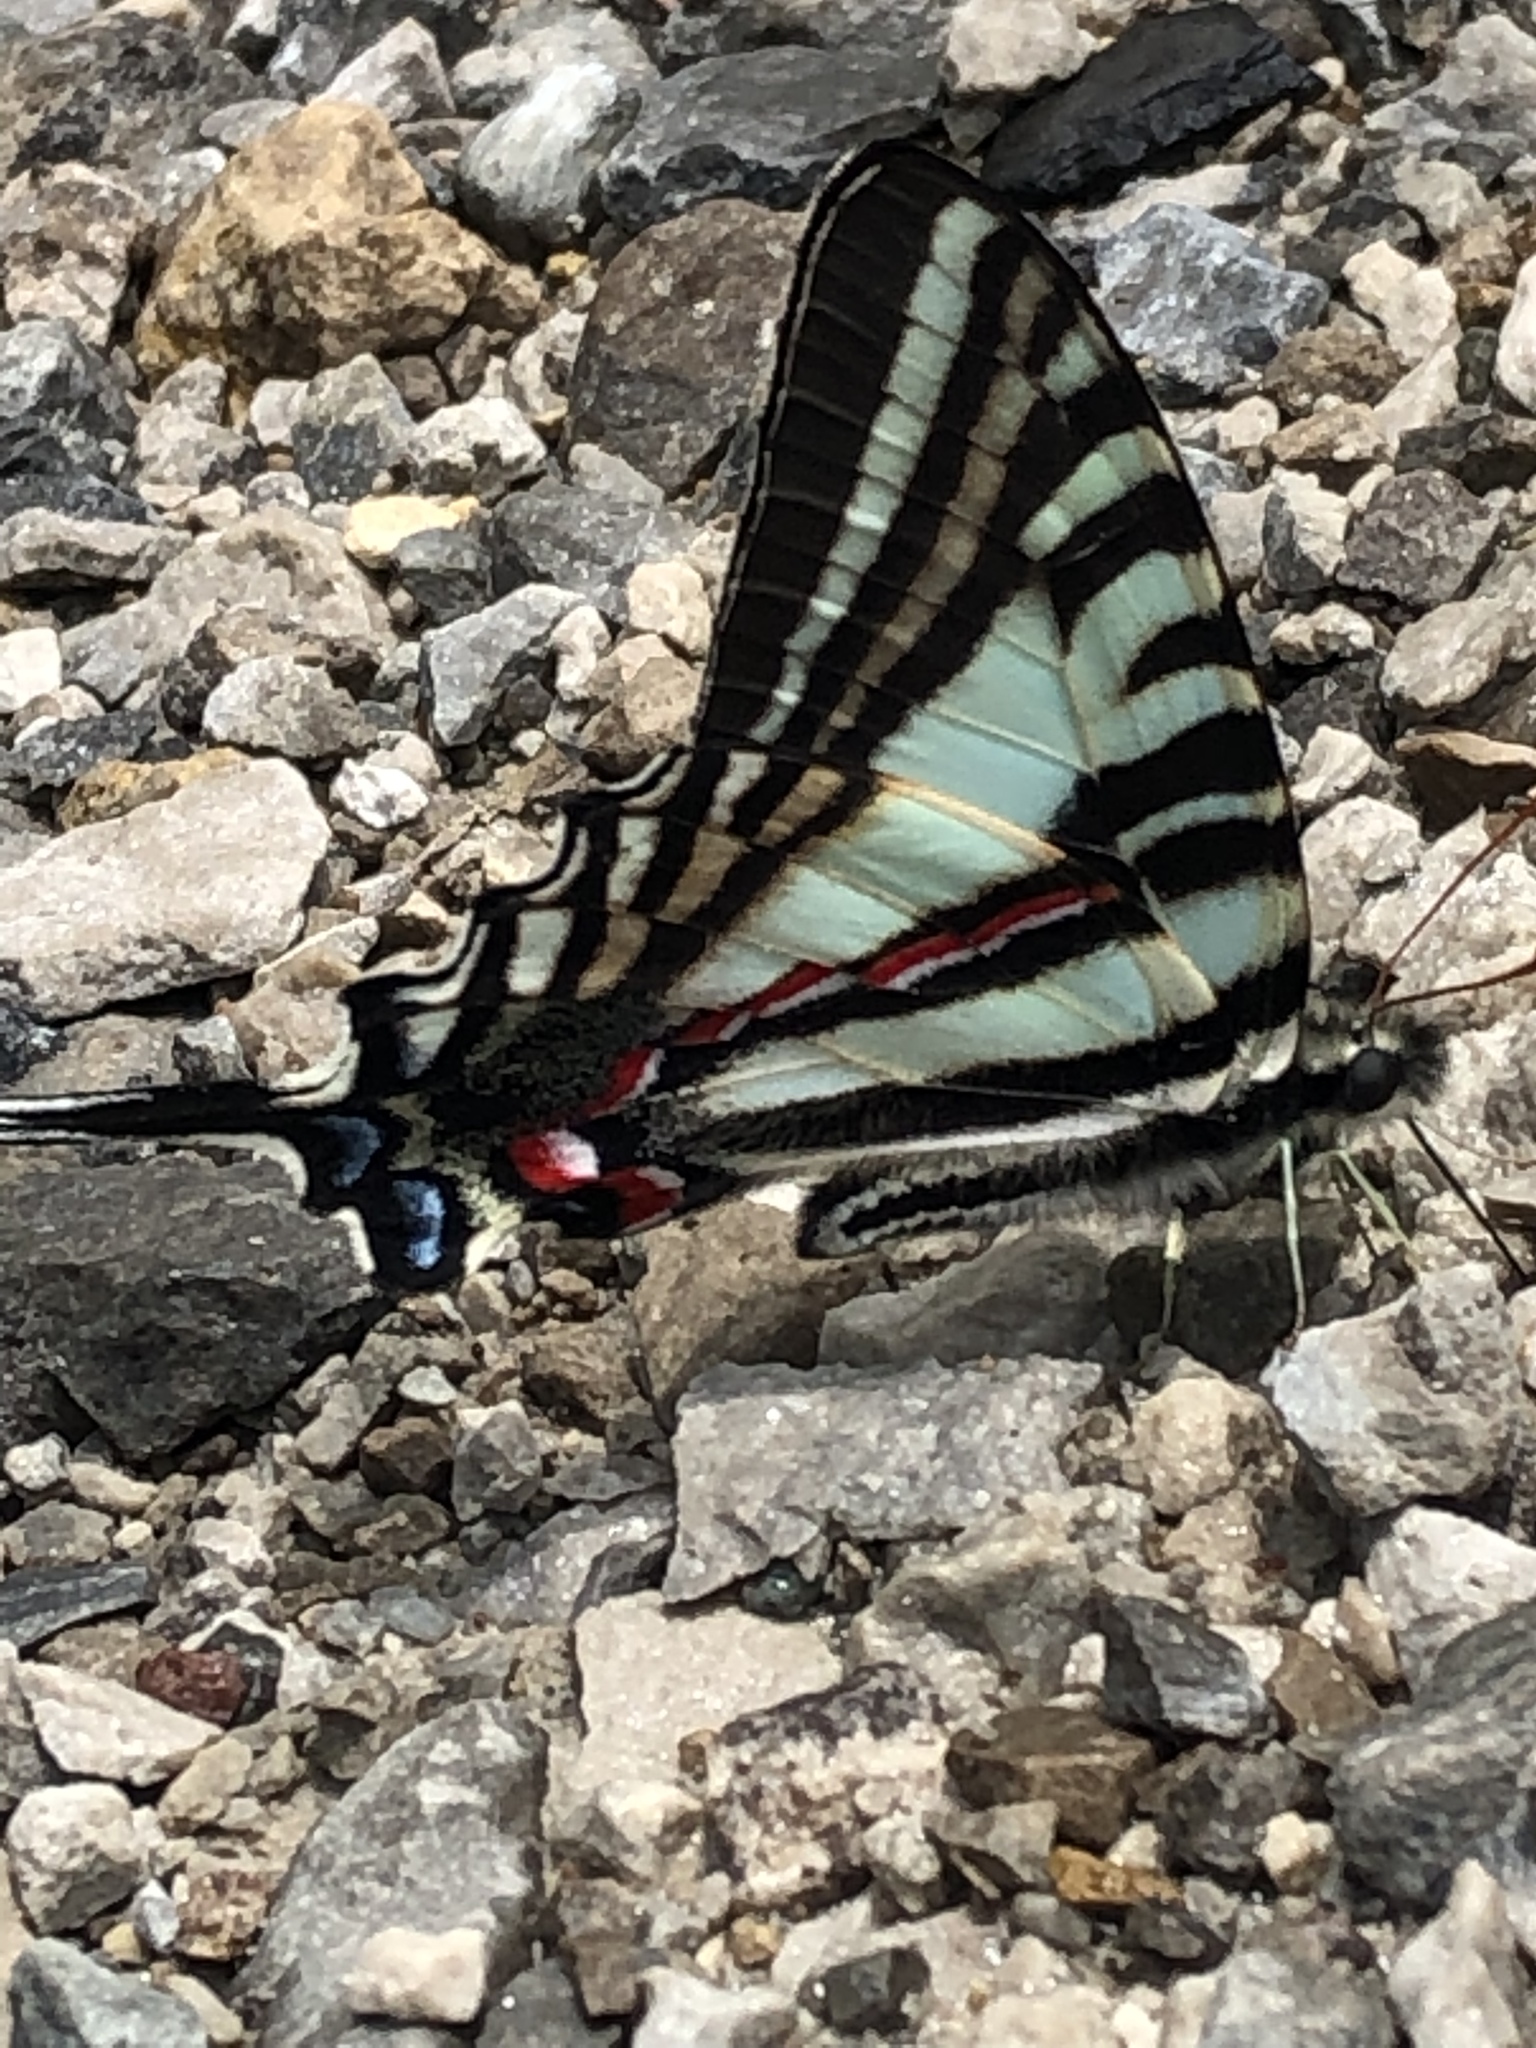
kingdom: Animalia
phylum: Arthropoda
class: Insecta
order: Lepidoptera
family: Papilionidae
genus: Protographium
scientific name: Protographium marcellus
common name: Zebra swallowtail
